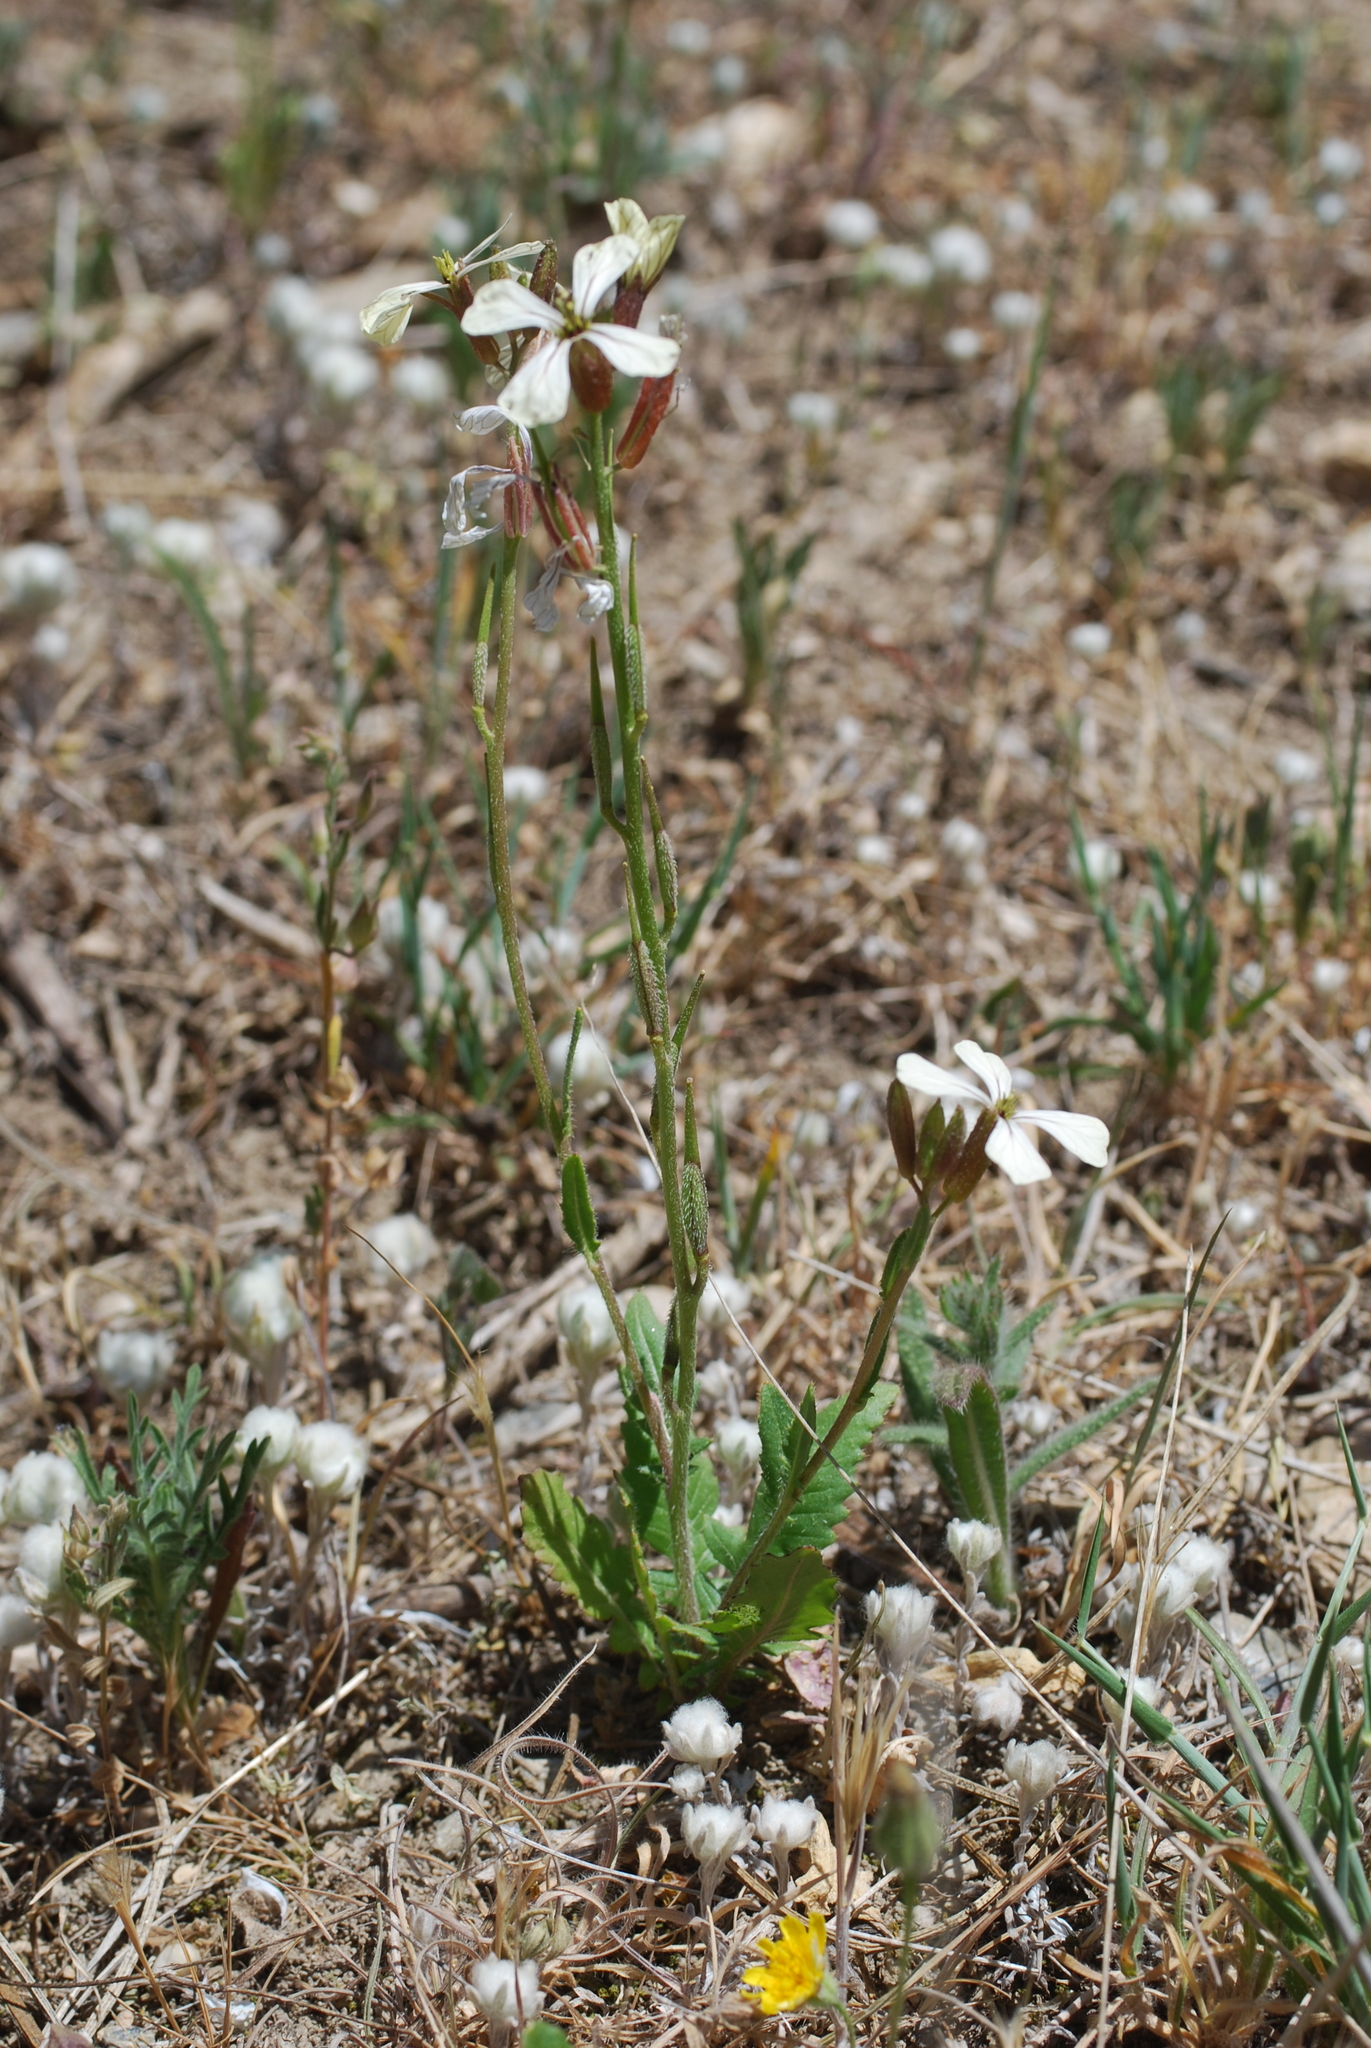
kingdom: Plantae
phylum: Tracheophyta
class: Magnoliopsida
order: Brassicales
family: Brassicaceae
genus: Eruca
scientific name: Eruca vesicaria
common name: Garden rocket
